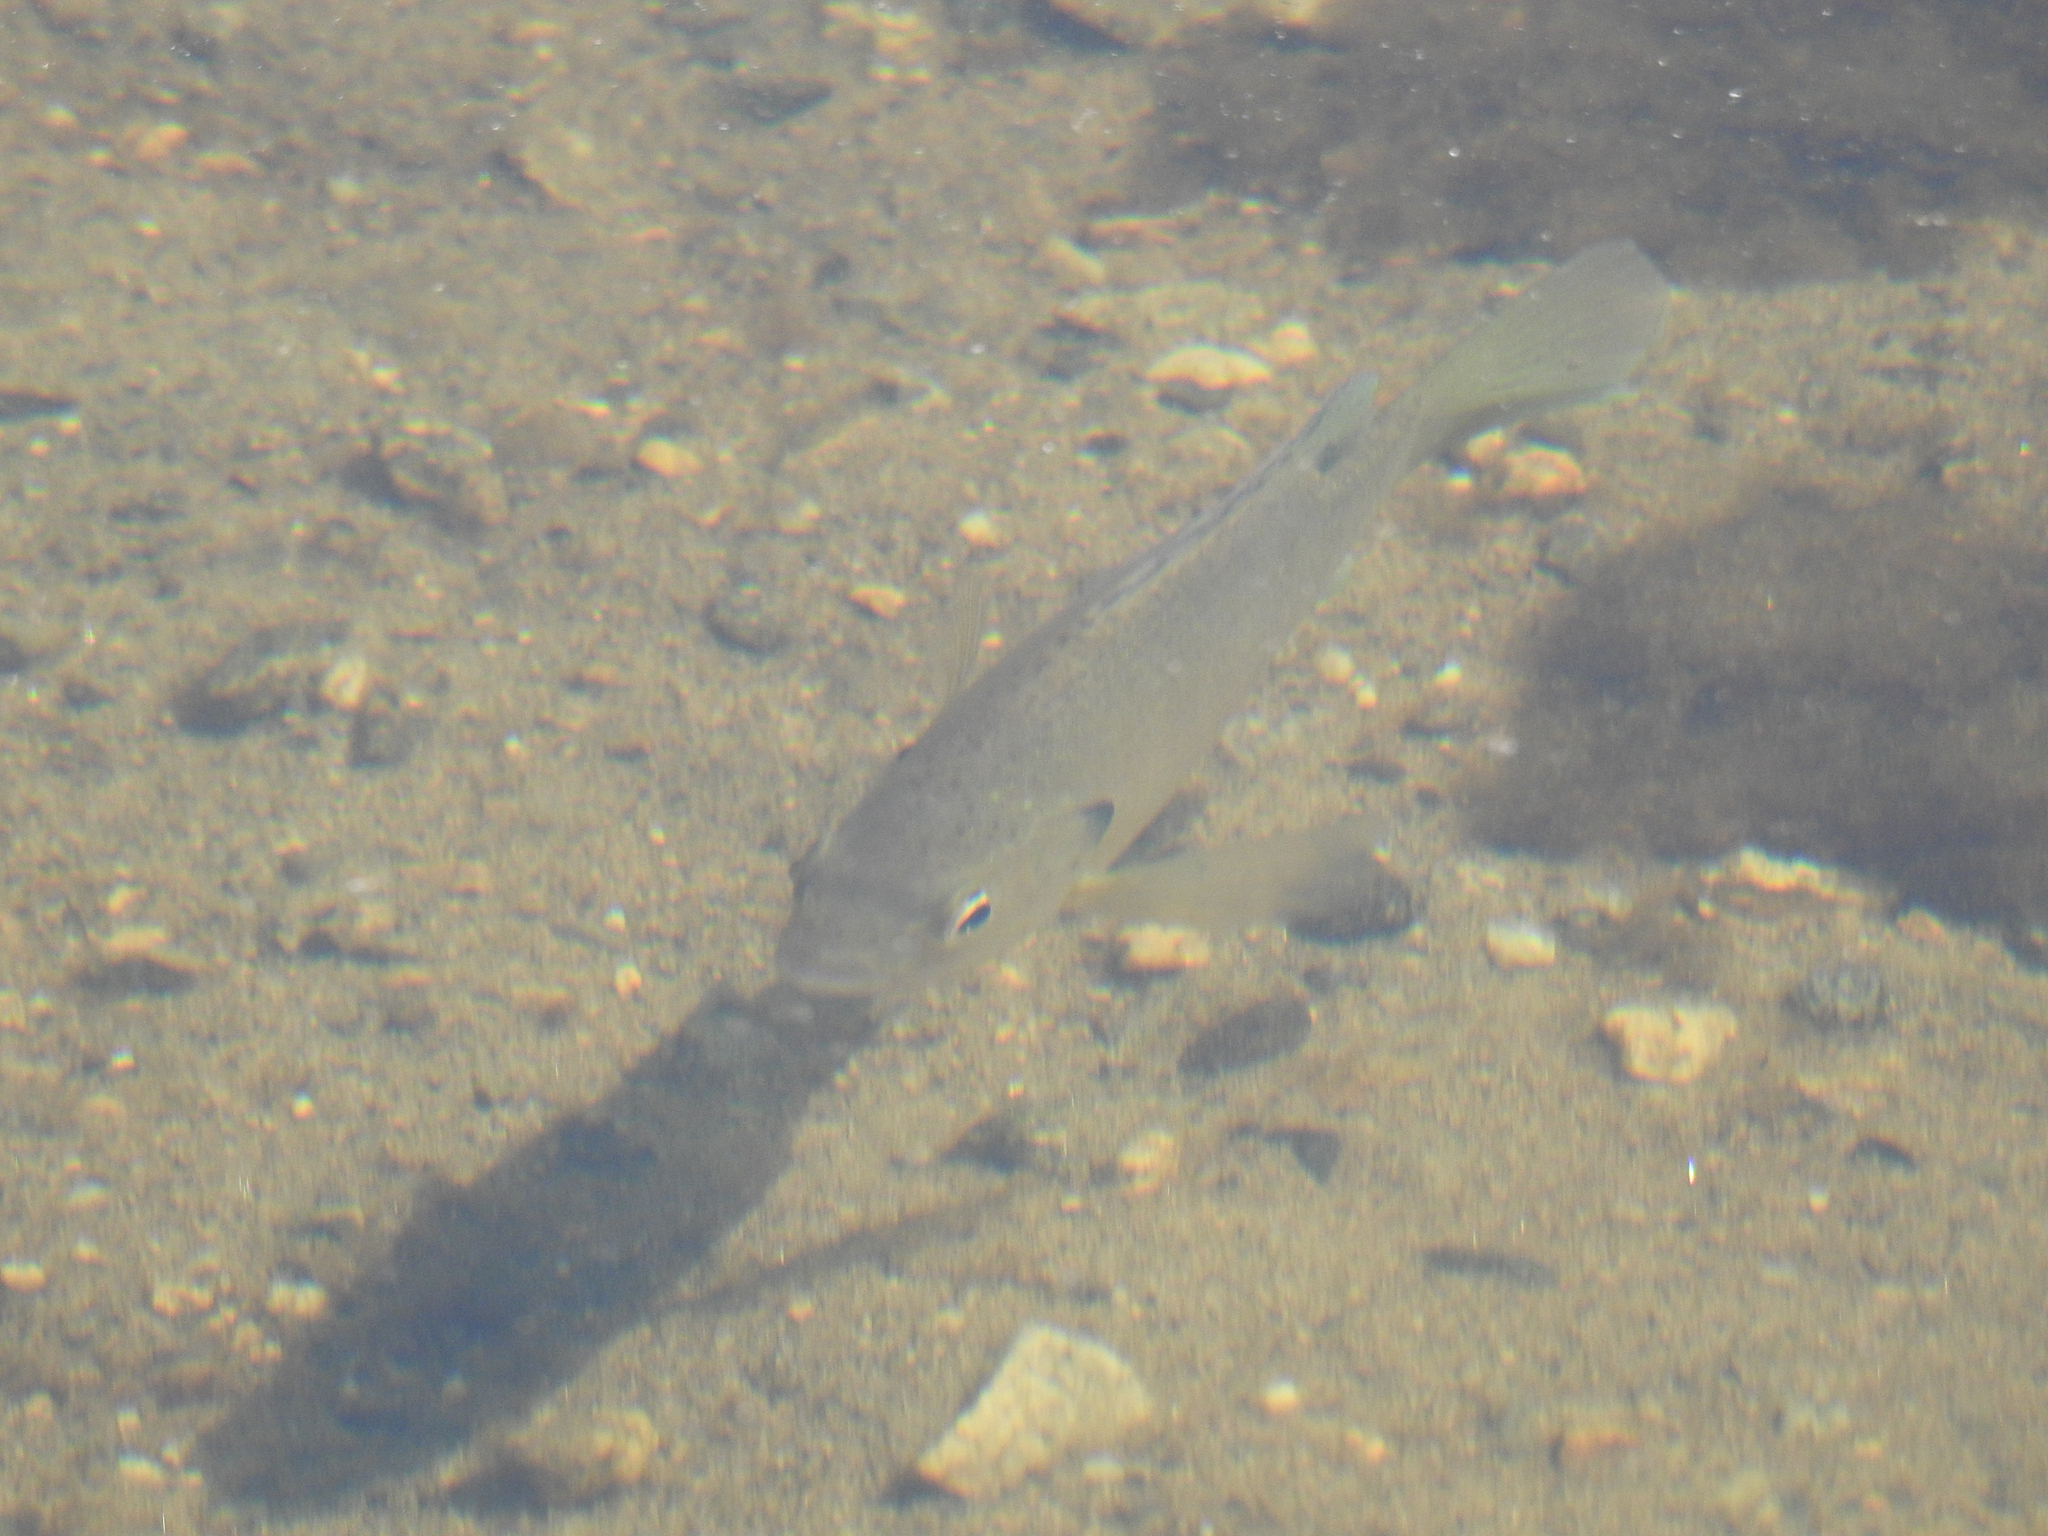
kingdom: Animalia
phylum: Chordata
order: Perciformes
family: Centrarchidae
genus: Lepomis
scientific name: Lepomis macrochirus
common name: Bluegill
